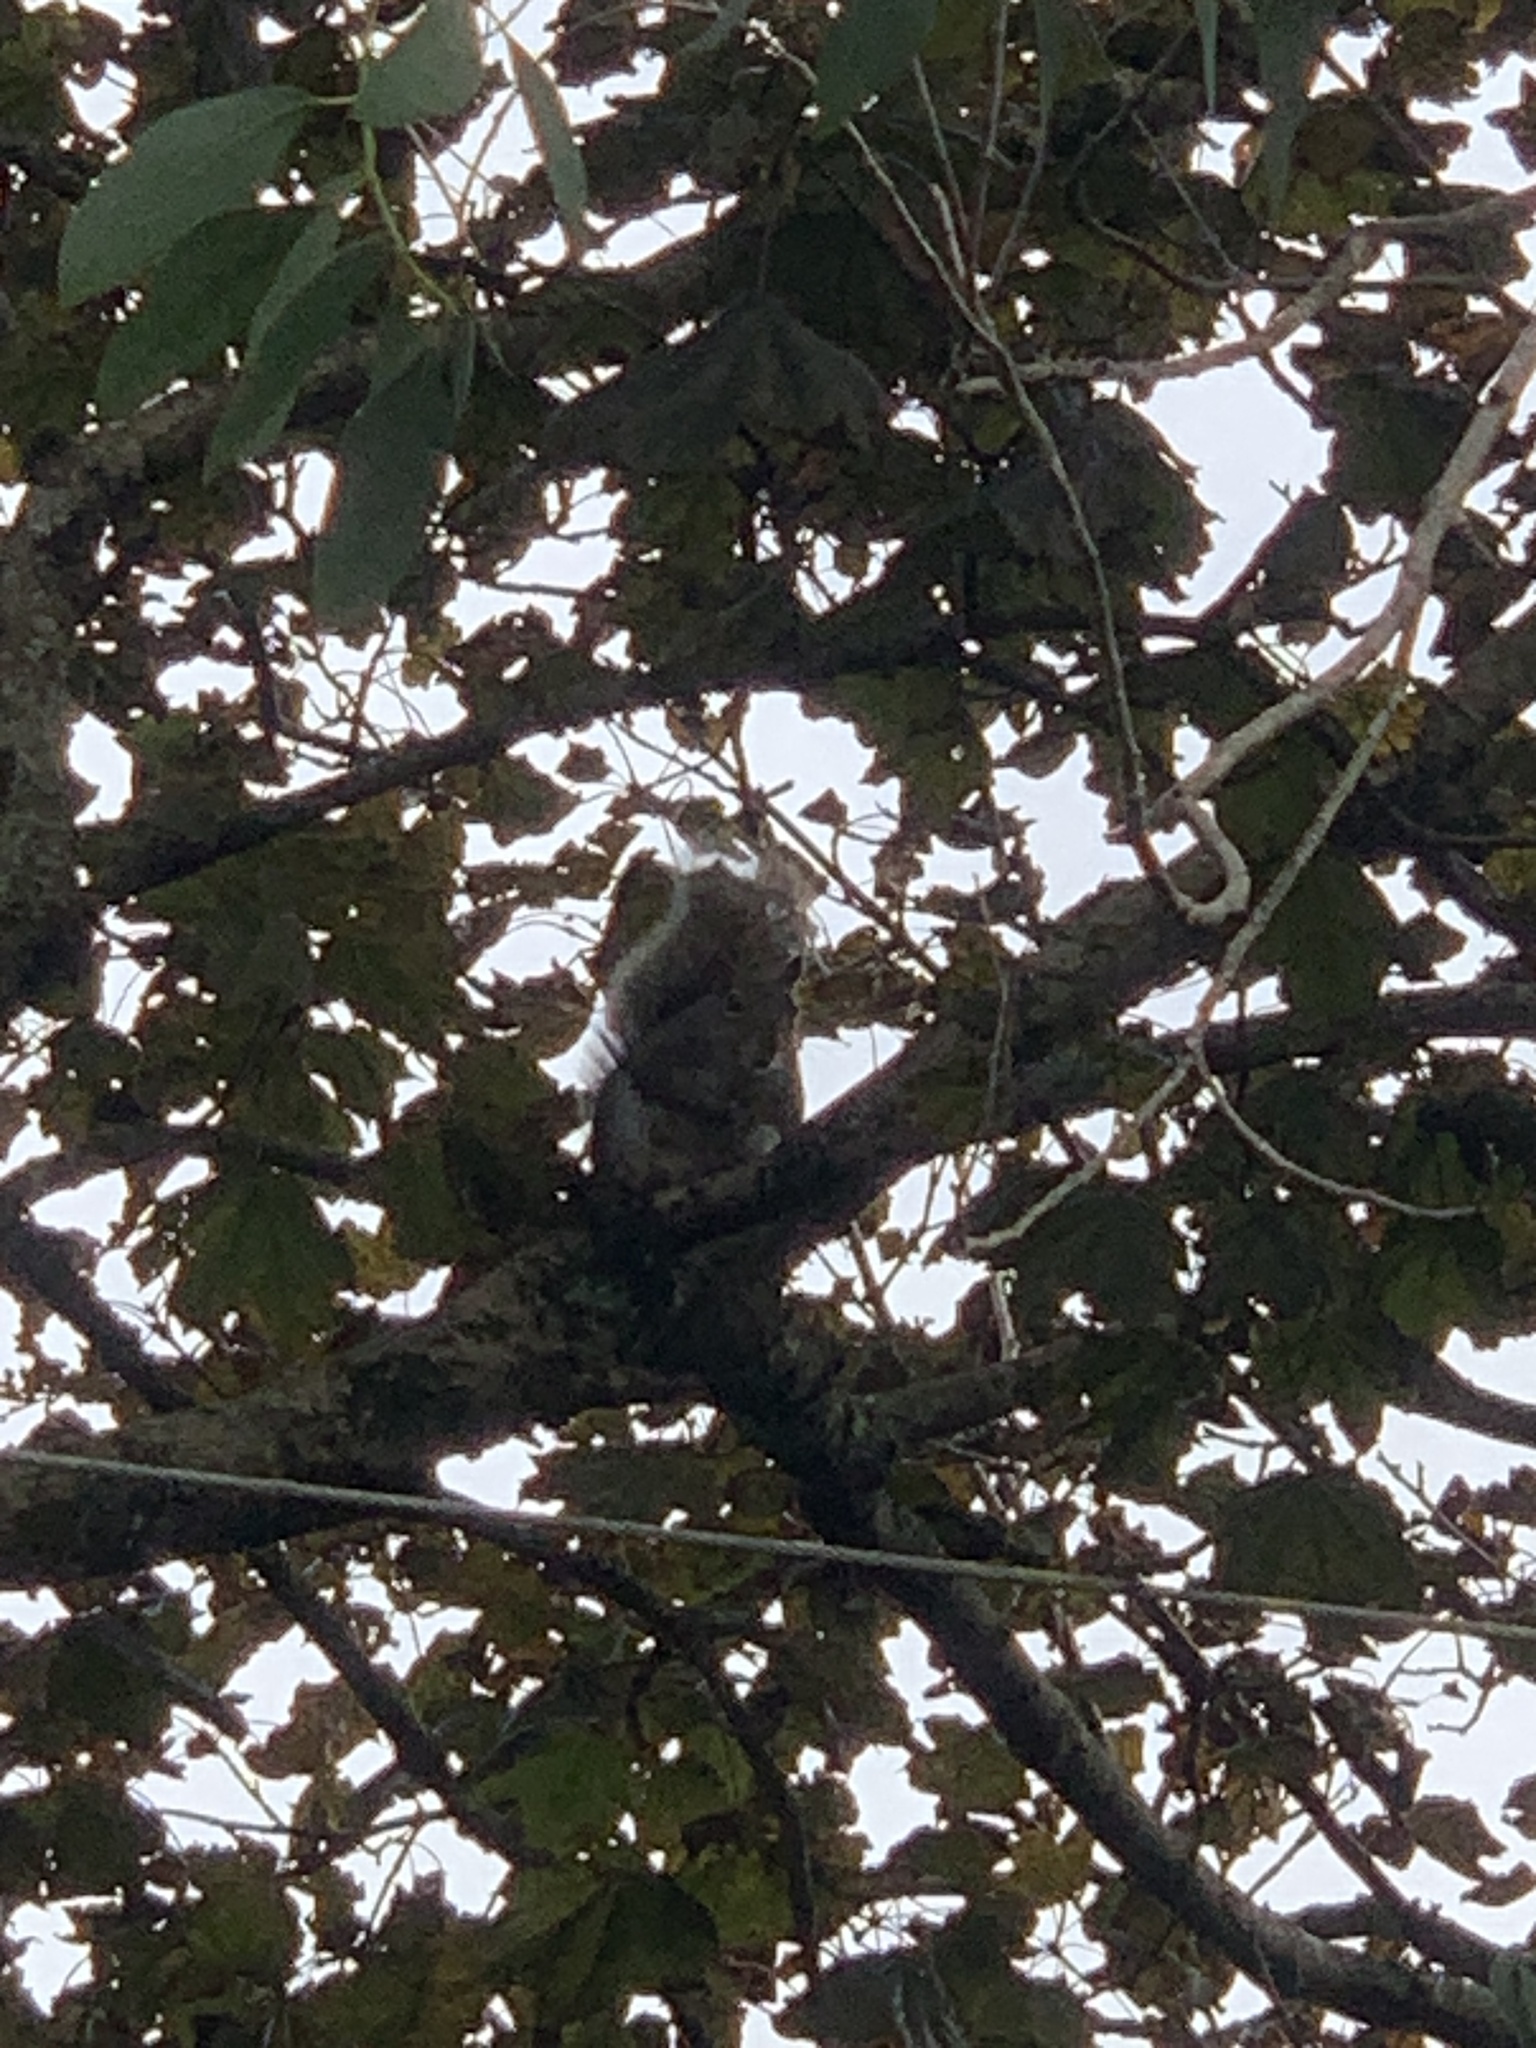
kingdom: Animalia
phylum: Chordata
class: Mammalia
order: Rodentia
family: Sciuridae
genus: Sciurus
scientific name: Sciurus carolinensis
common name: Eastern gray squirrel
